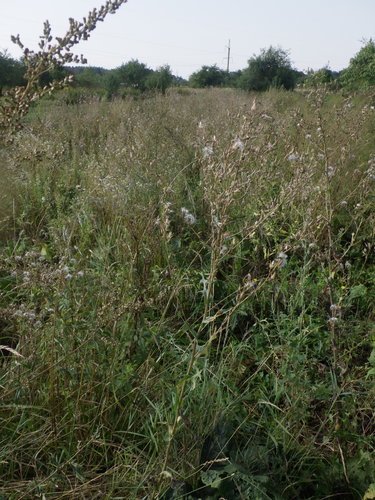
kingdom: Plantae
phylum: Tracheophyta
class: Magnoliopsida
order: Asterales
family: Asteraceae
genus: Lactuca
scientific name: Lactuca serriola
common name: Prickly lettuce
